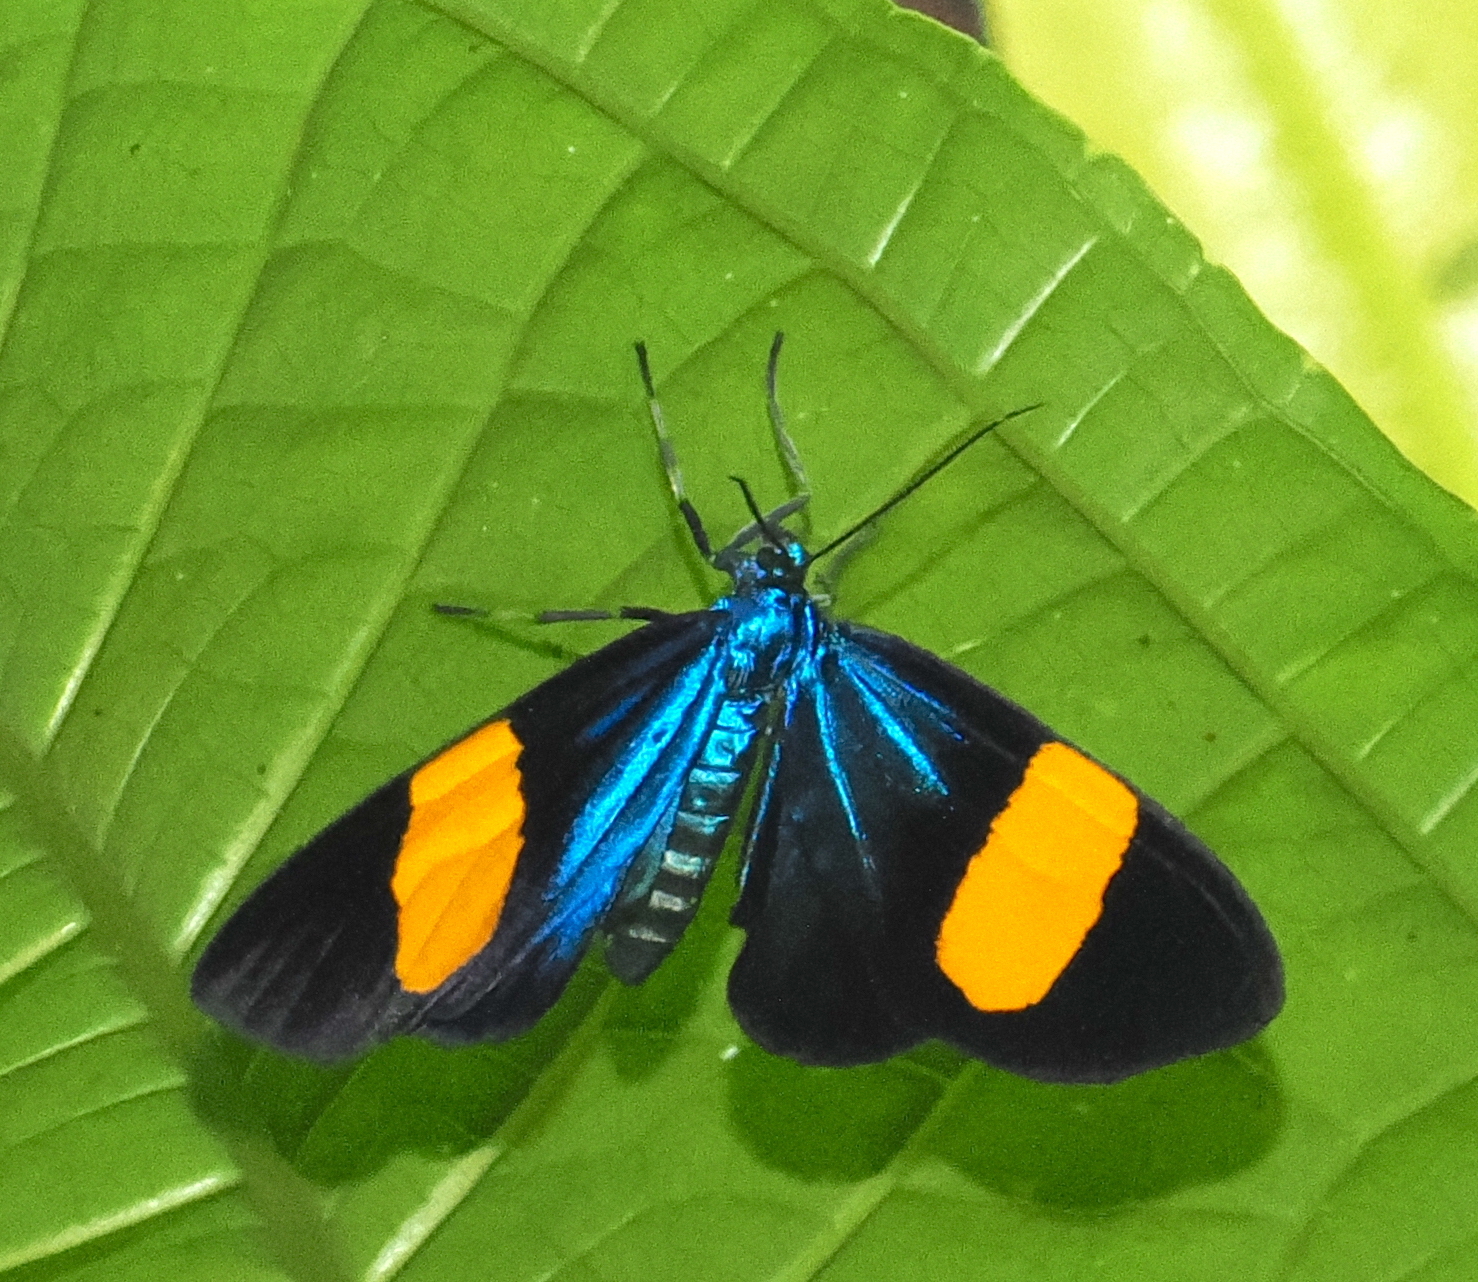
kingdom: Animalia
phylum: Arthropoda
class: Insecta
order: Lepidoptera
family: Erebidae
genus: Hypocrita
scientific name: Hypocrita childon
